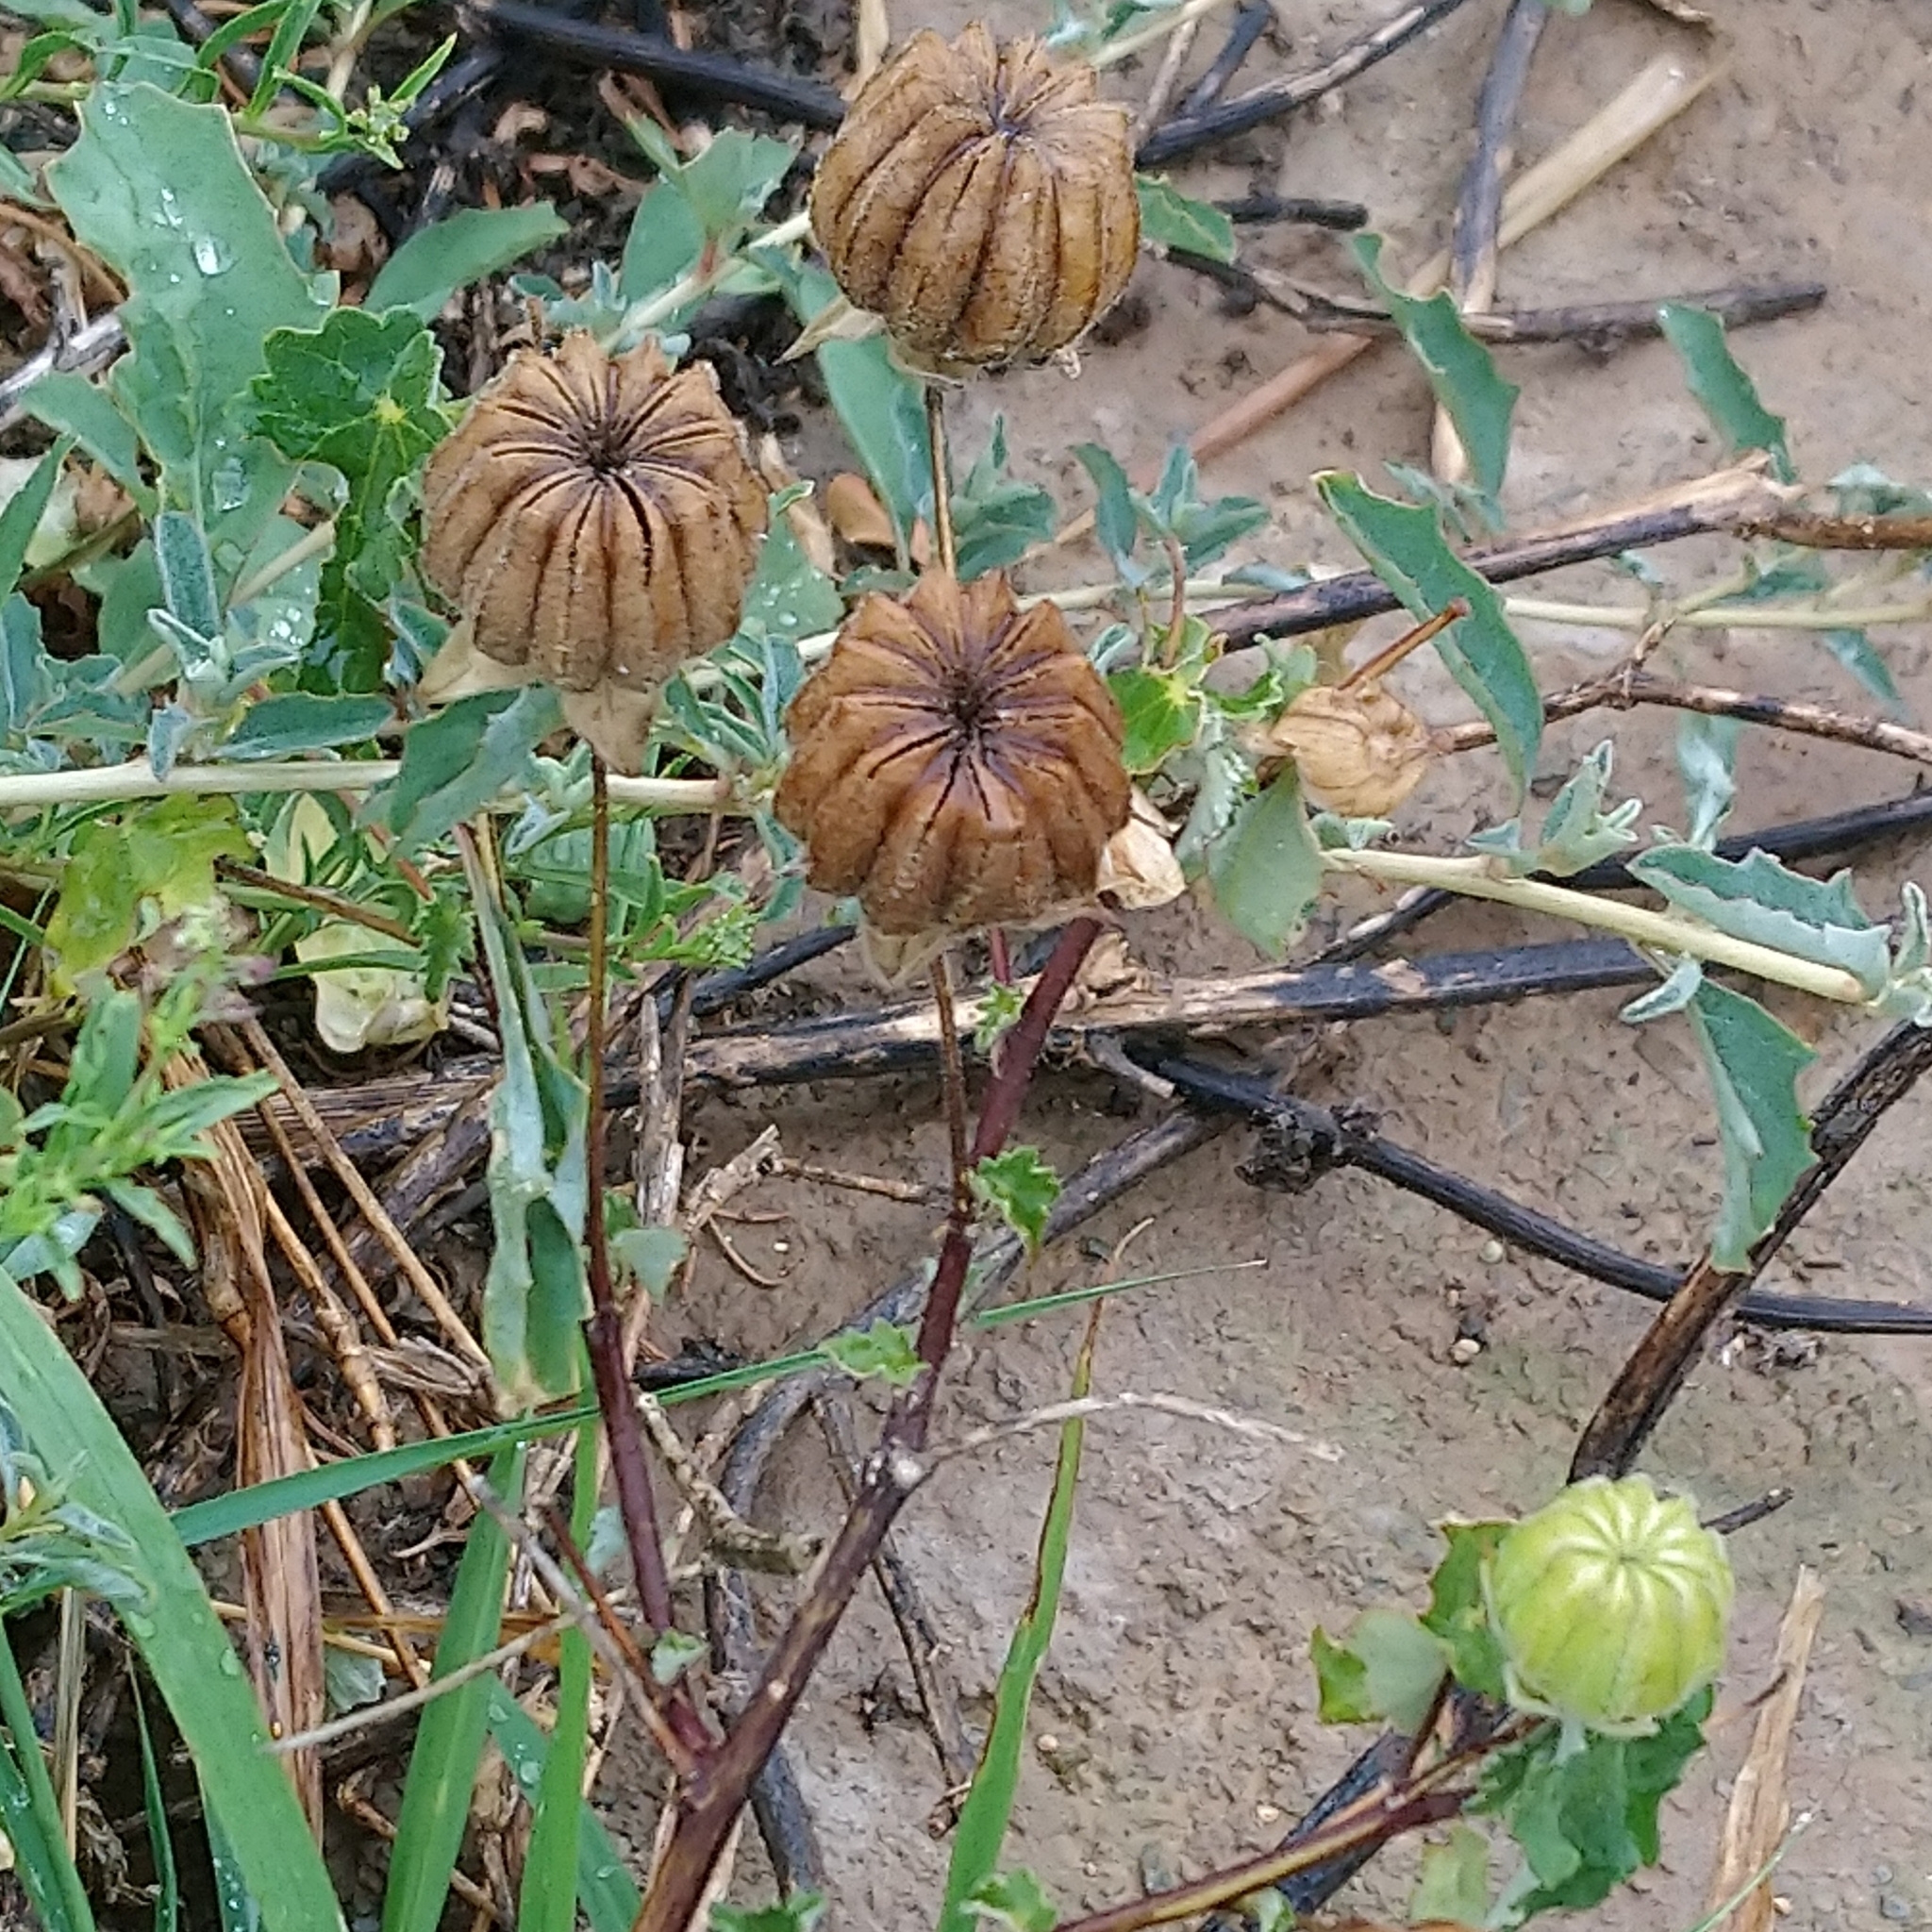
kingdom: Plantae
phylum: Tracheophyta
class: Magnoliopsida
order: Malvales
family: Malvaceae
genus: Abutilon
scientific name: Abutilon sonneratianum
